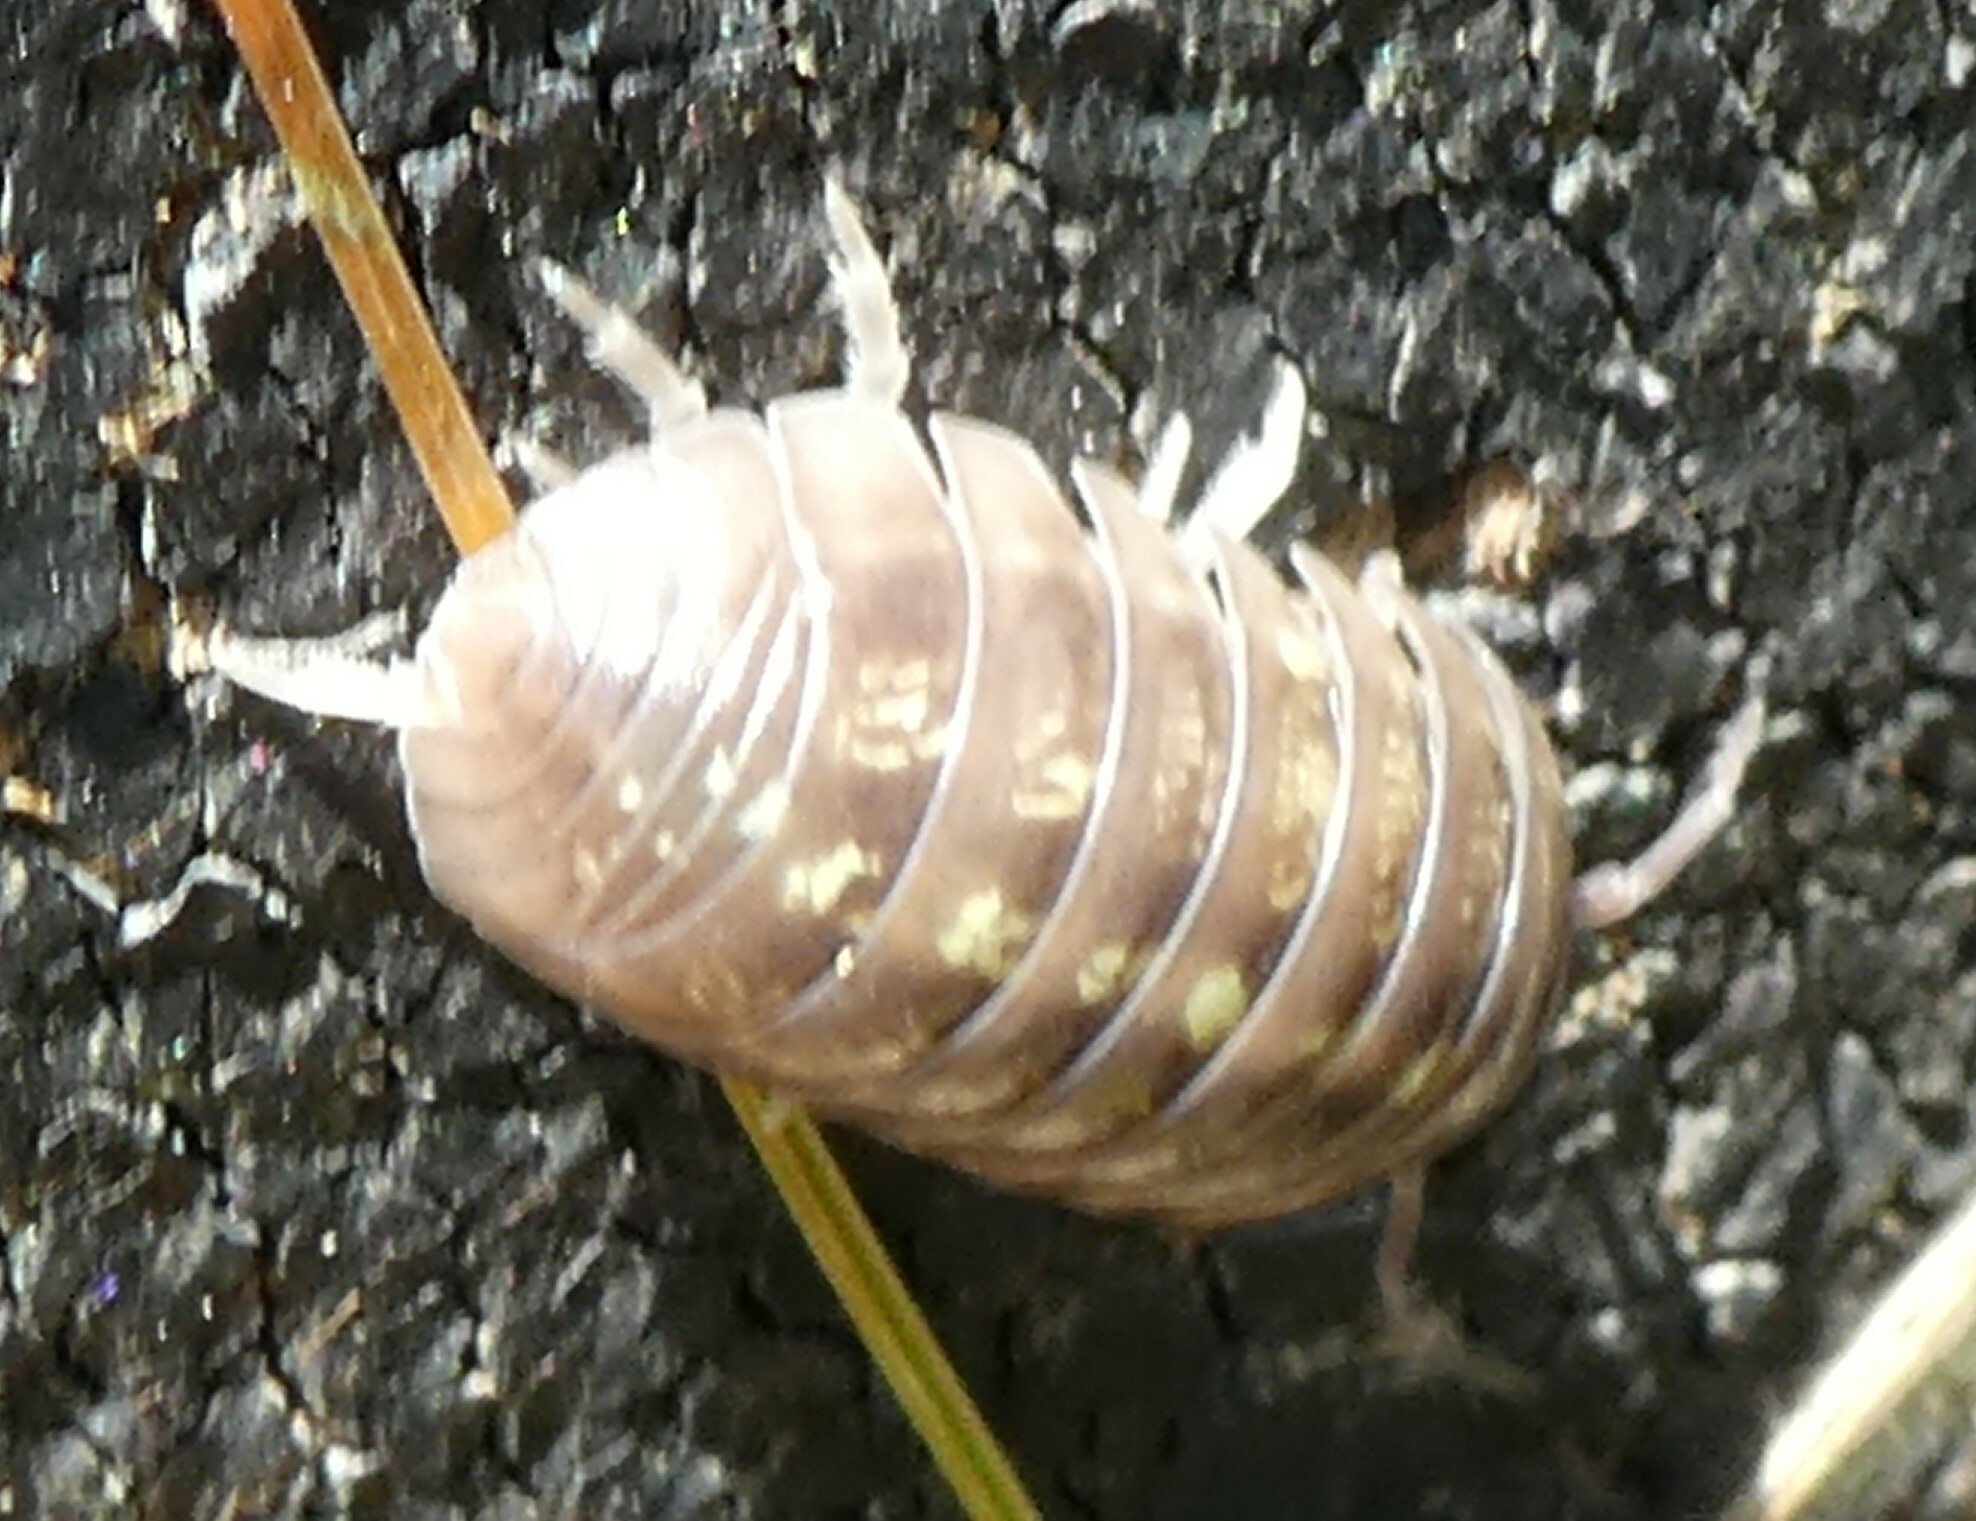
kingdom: Animalia
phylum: Arthropoda
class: Malacostraca
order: Isopoda
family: Armadillidiidae
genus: Armadillidium
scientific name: Armadillidium vulgare
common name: Common pill woodlouse
